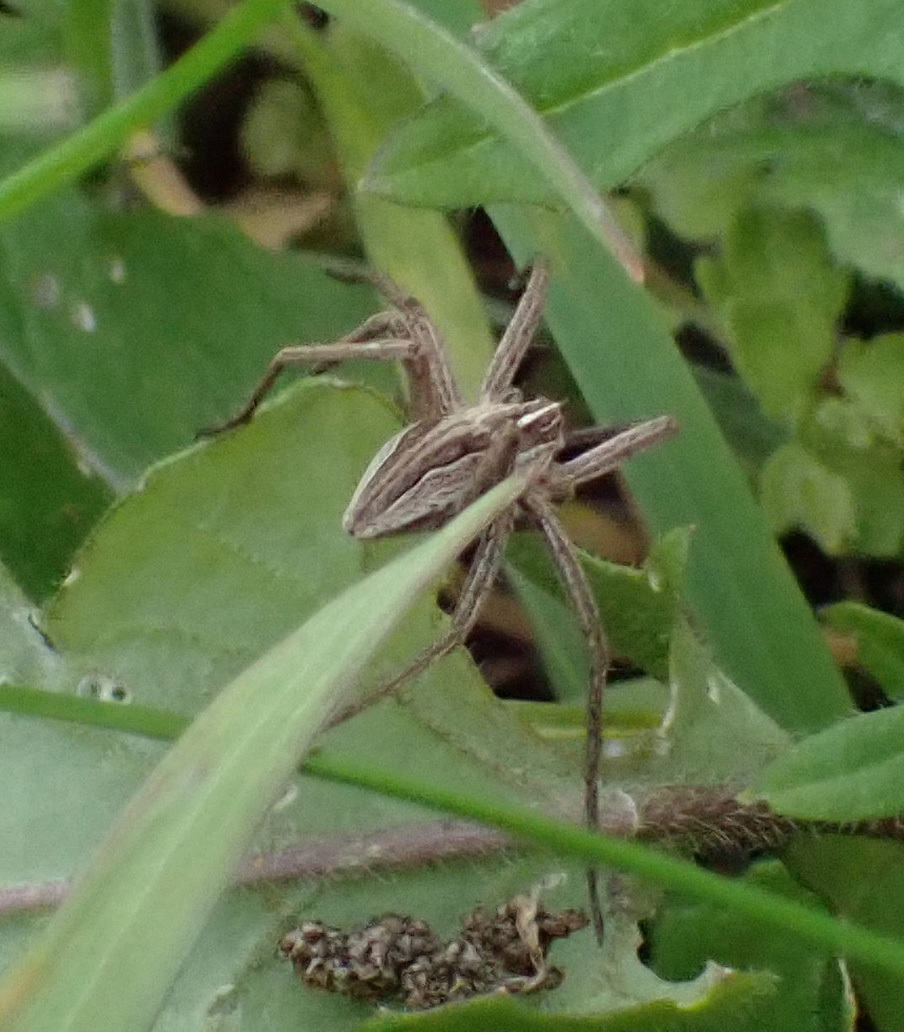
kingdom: Animalia
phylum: Arthropoda
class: Arachnida
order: Araneae
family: Pisauridae
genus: Pisaura
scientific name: Pisaura mirabilis
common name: Tent spider
